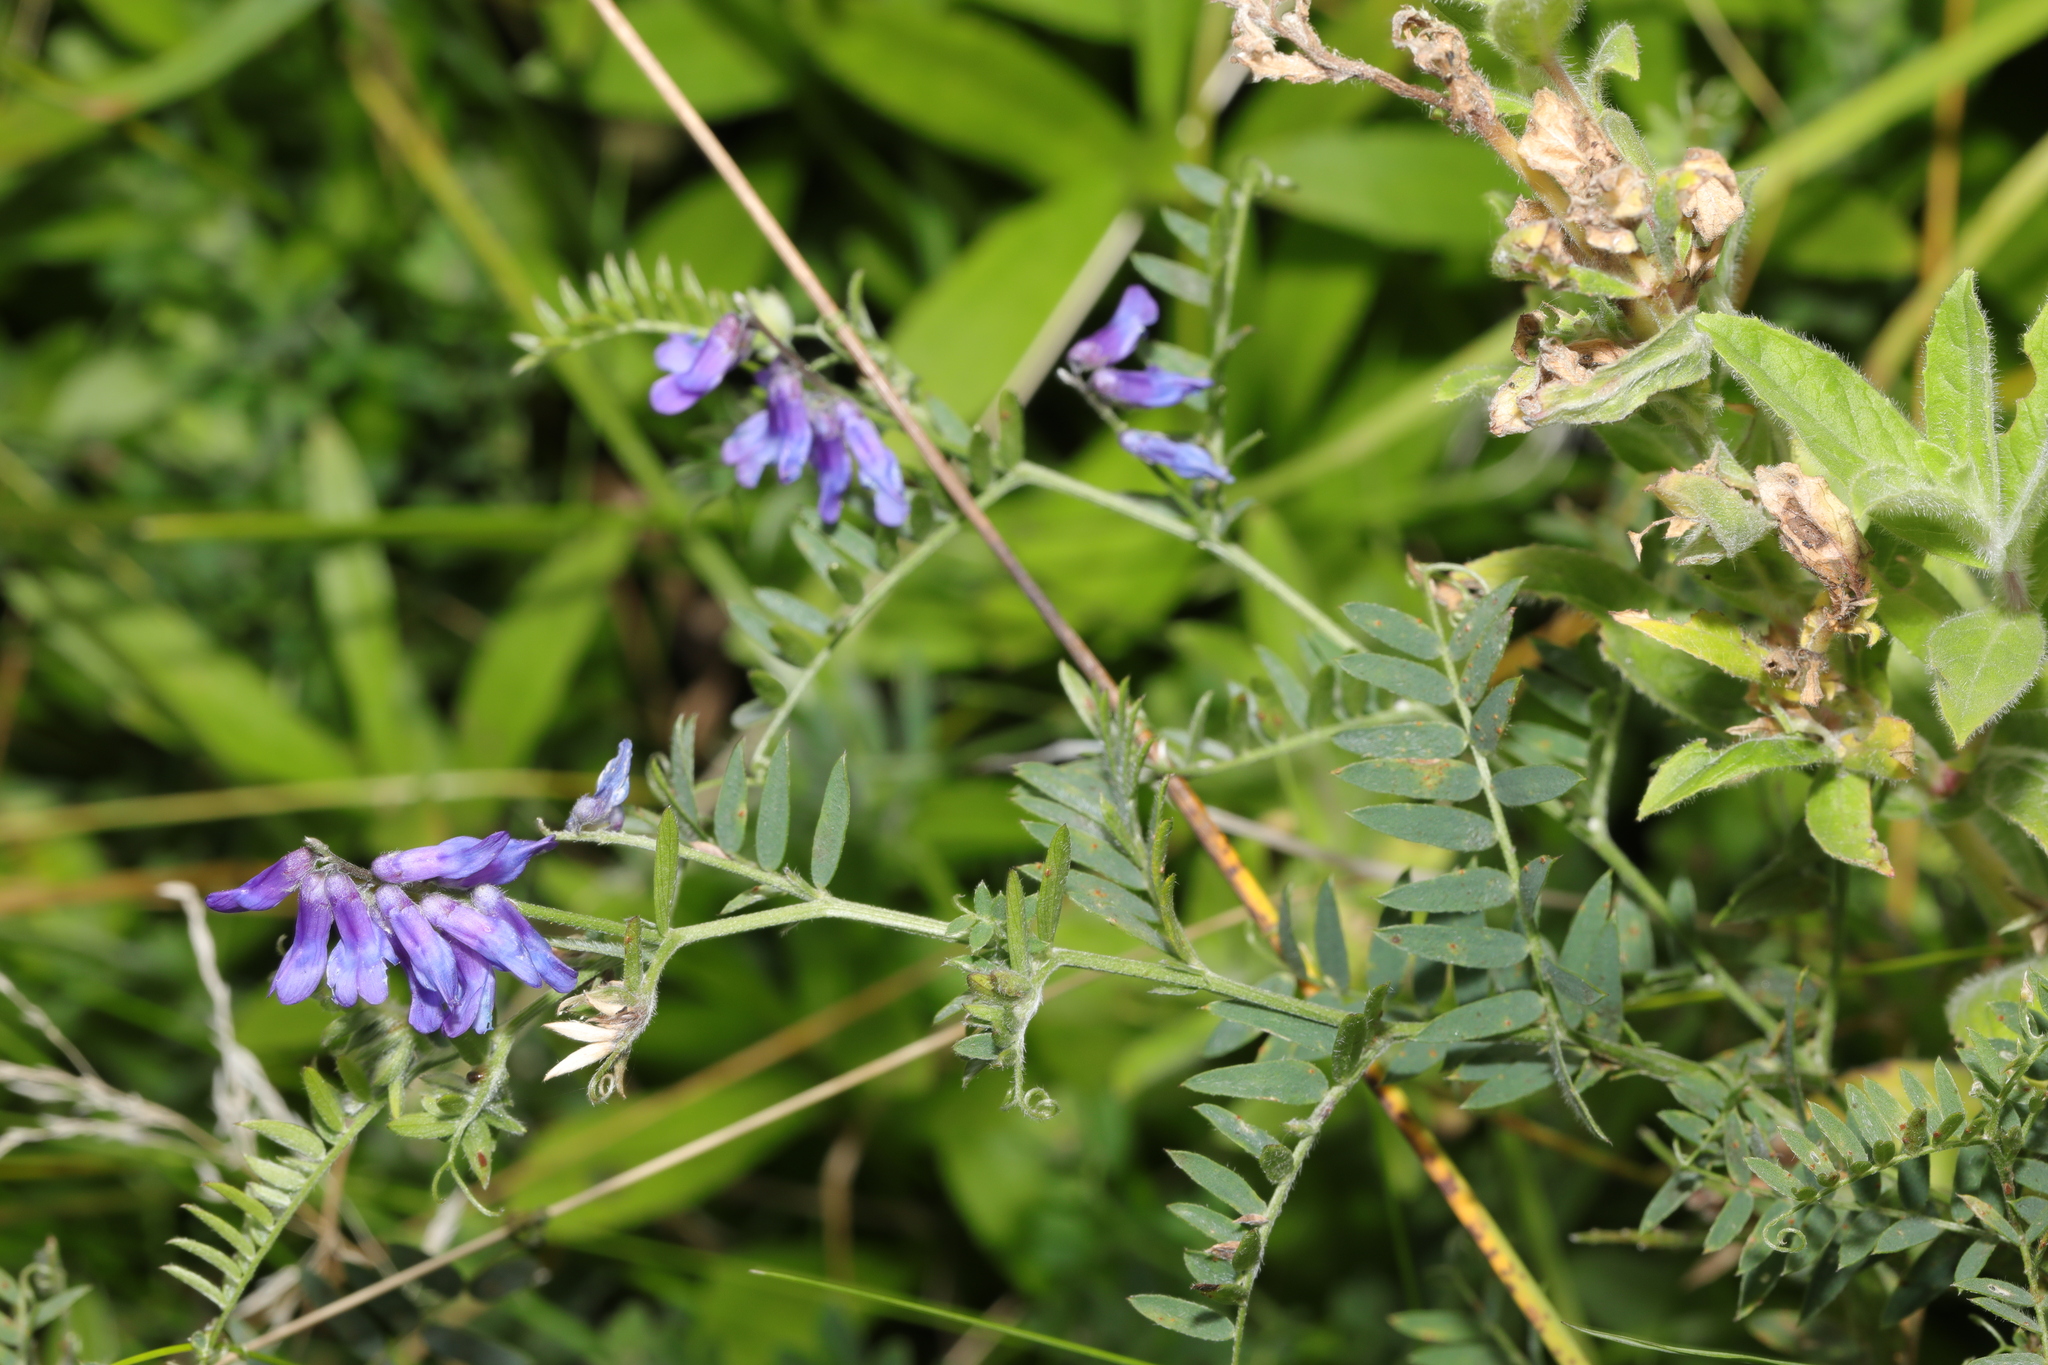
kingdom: Plantae
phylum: Tracheophyta
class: Magnoliopsida
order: Fabales
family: Fabaceae
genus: Vicia
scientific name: Vicia cracca
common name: Bird vetch
